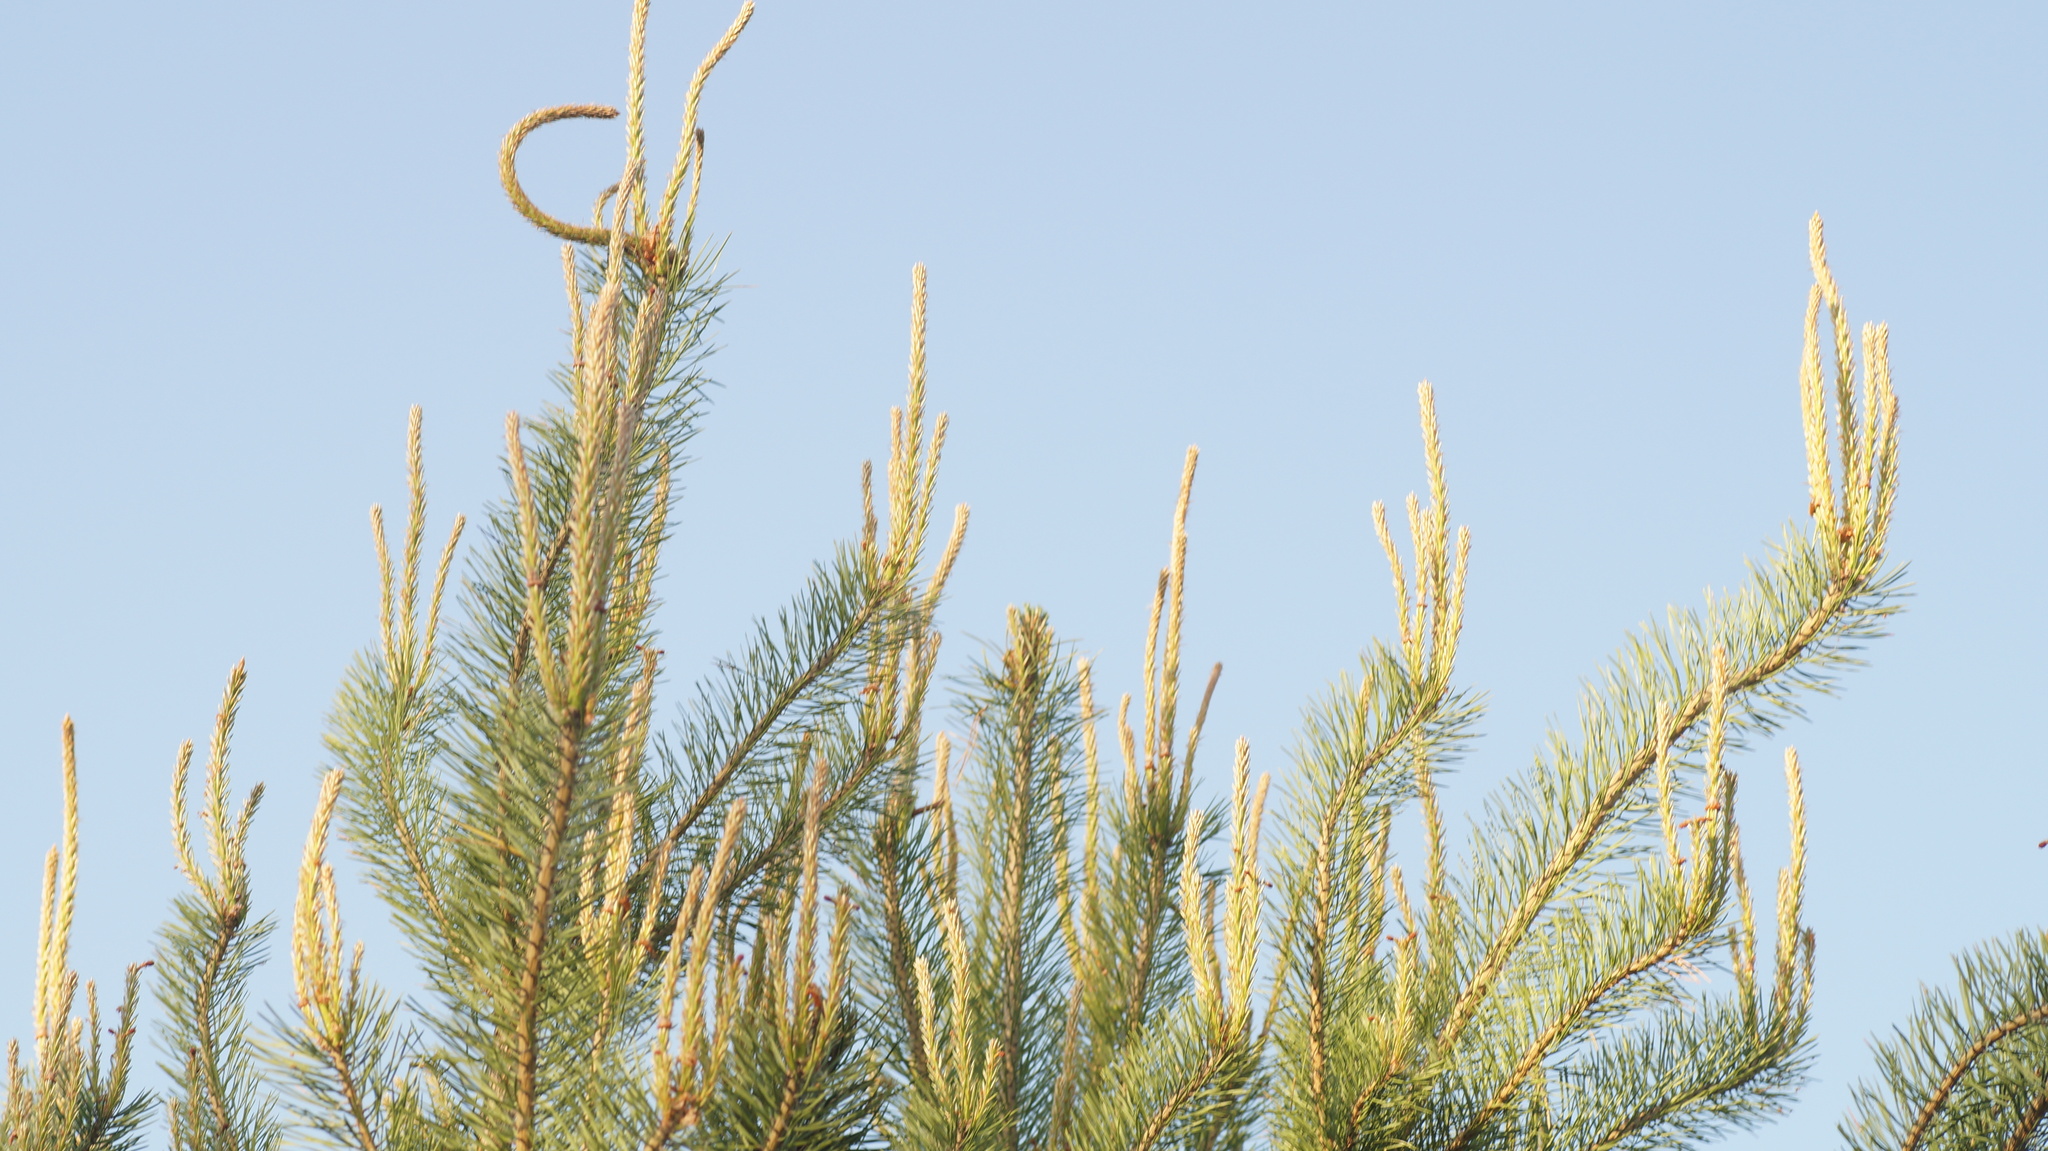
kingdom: Plantae
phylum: Tracheophyta
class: Pinopsida
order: Pinales
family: Pinaceae
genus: Pinus
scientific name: Pinus sylvestris
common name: Scots pine
